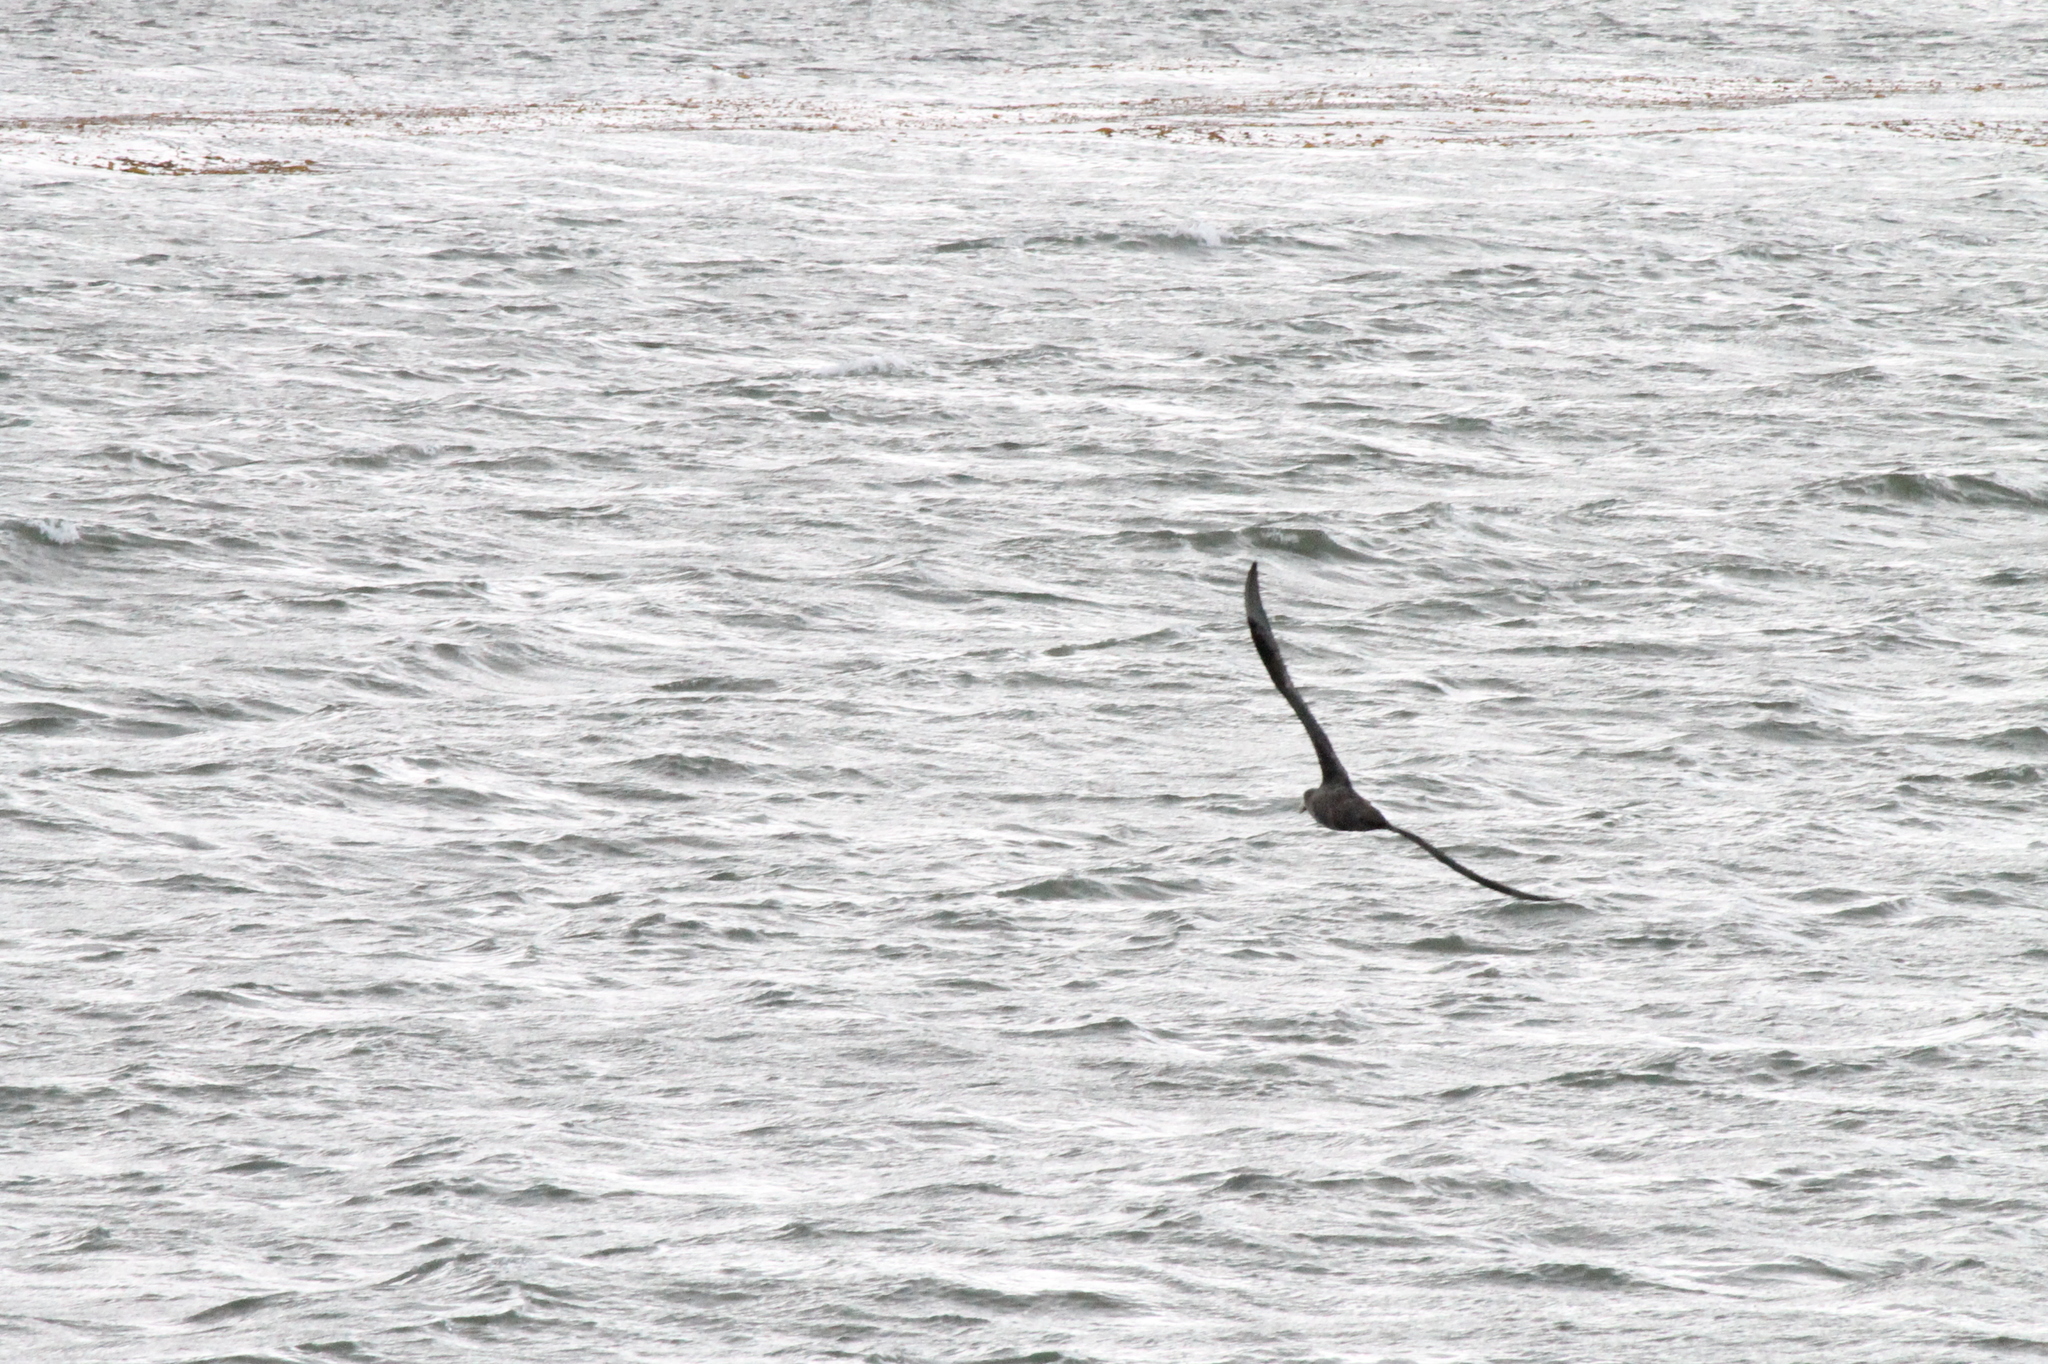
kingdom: Animalia
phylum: Chordata
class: Aves
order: Procellariiformes
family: Procellariidae
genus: Macronectes
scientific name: Macronectes giganteus
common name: Southern giant petrel
